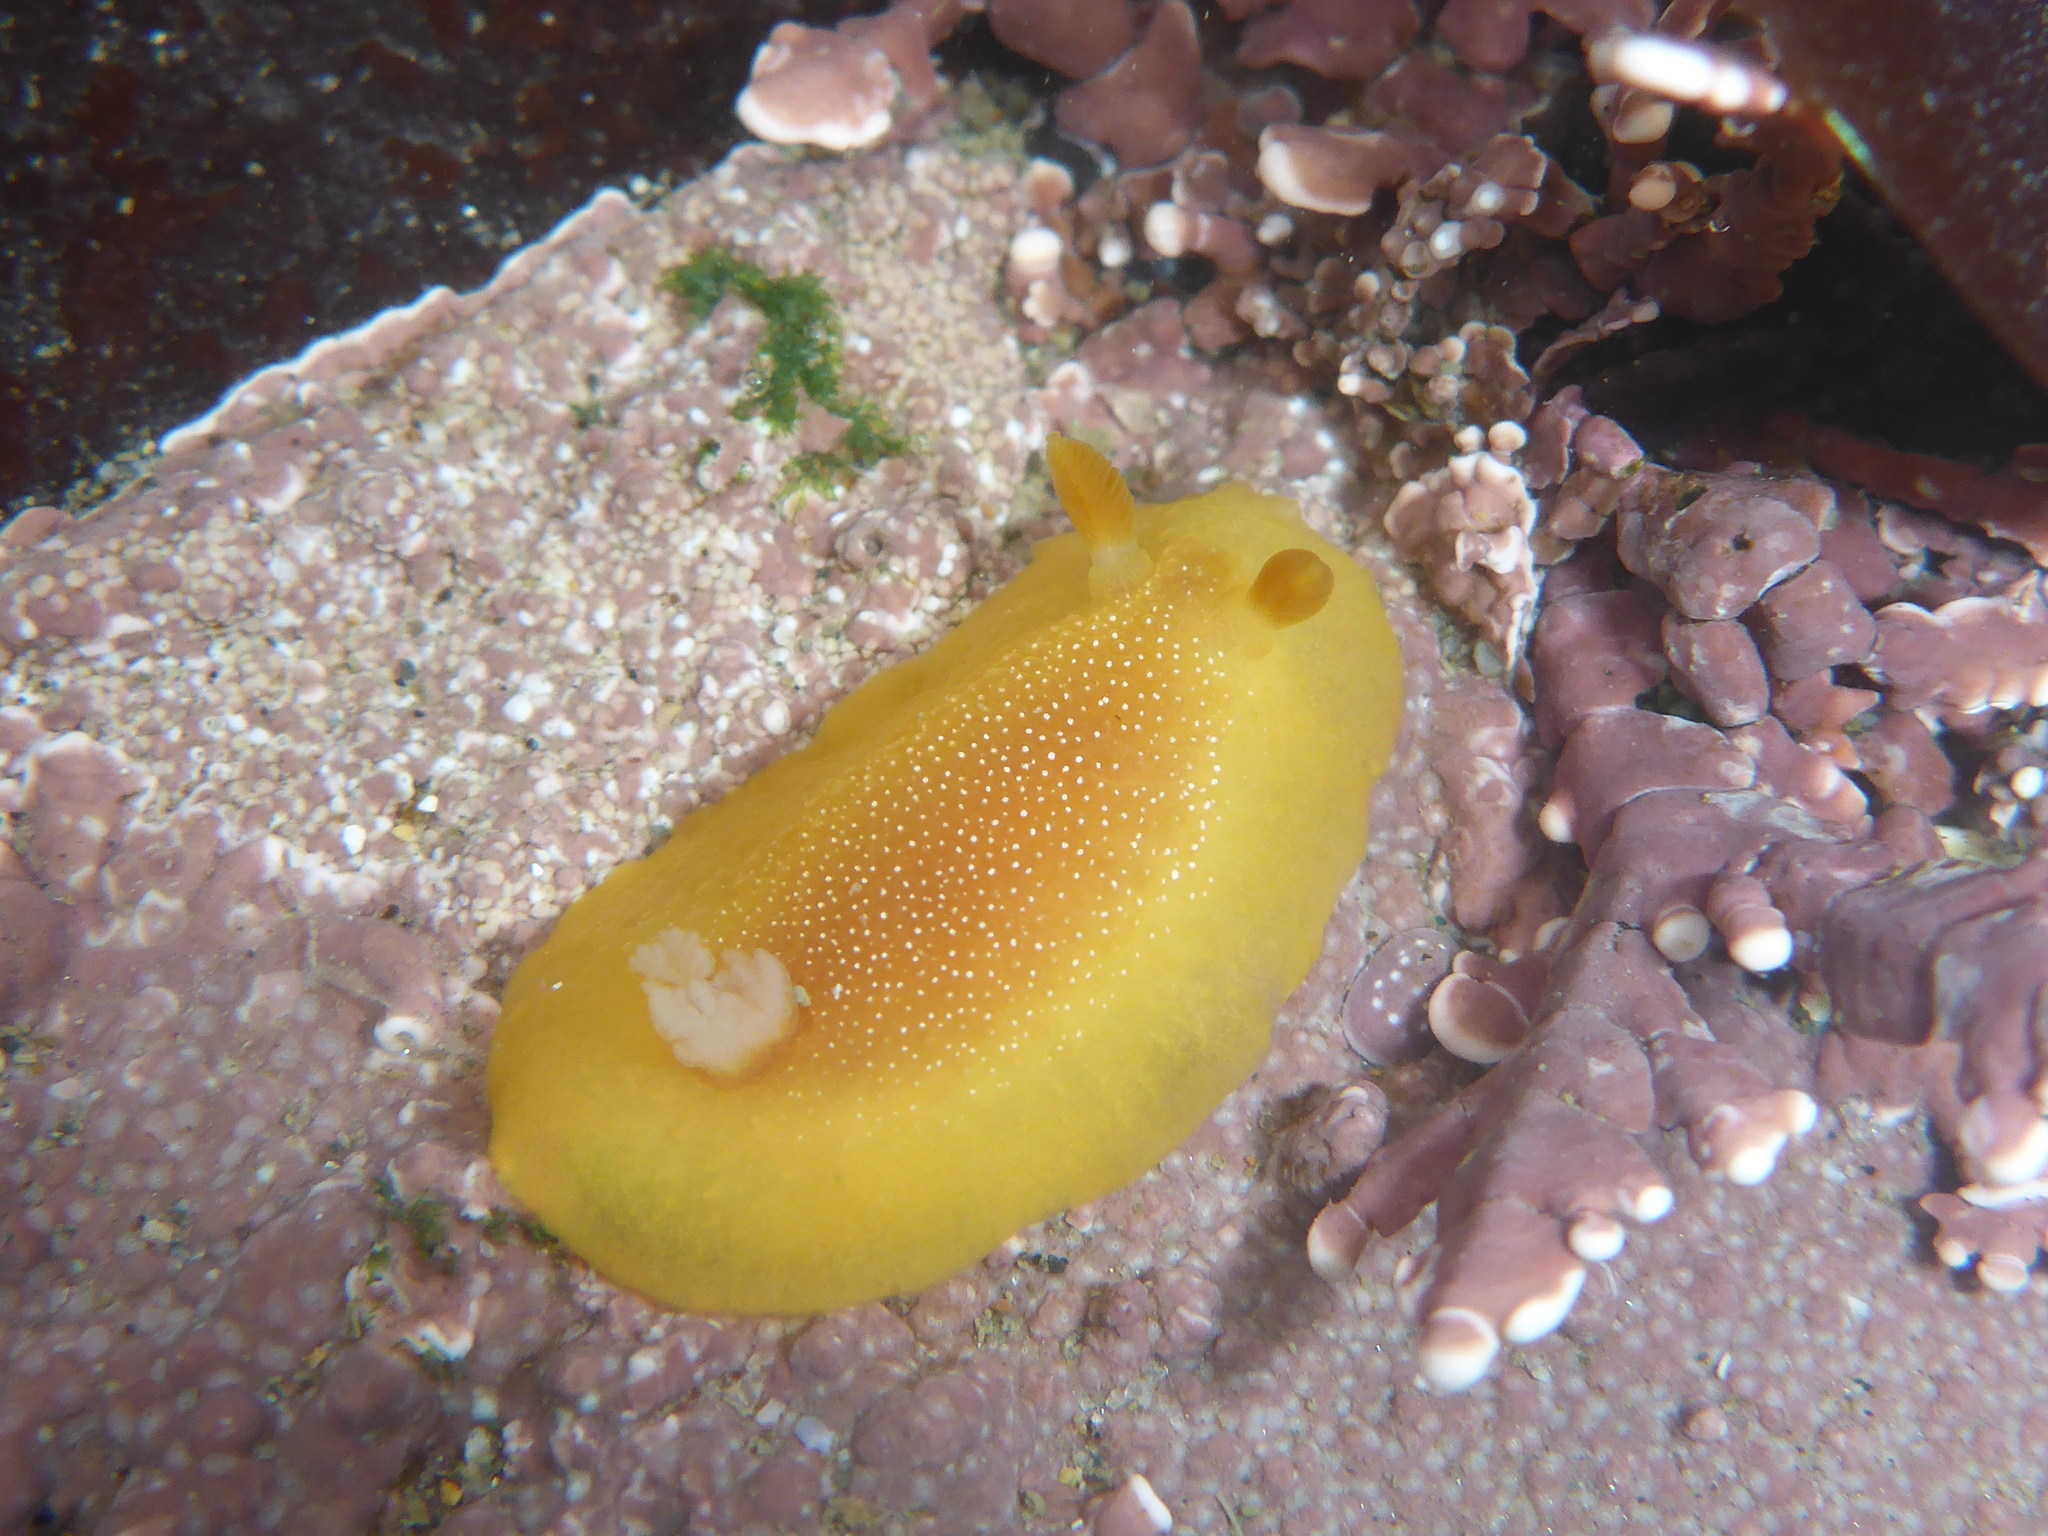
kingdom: Animalia
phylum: Mollusca
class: Gastropoda
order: Nudibranchia
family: Dendrodorididae
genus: Doriopsilla
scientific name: Doriopsilla albopunctata
